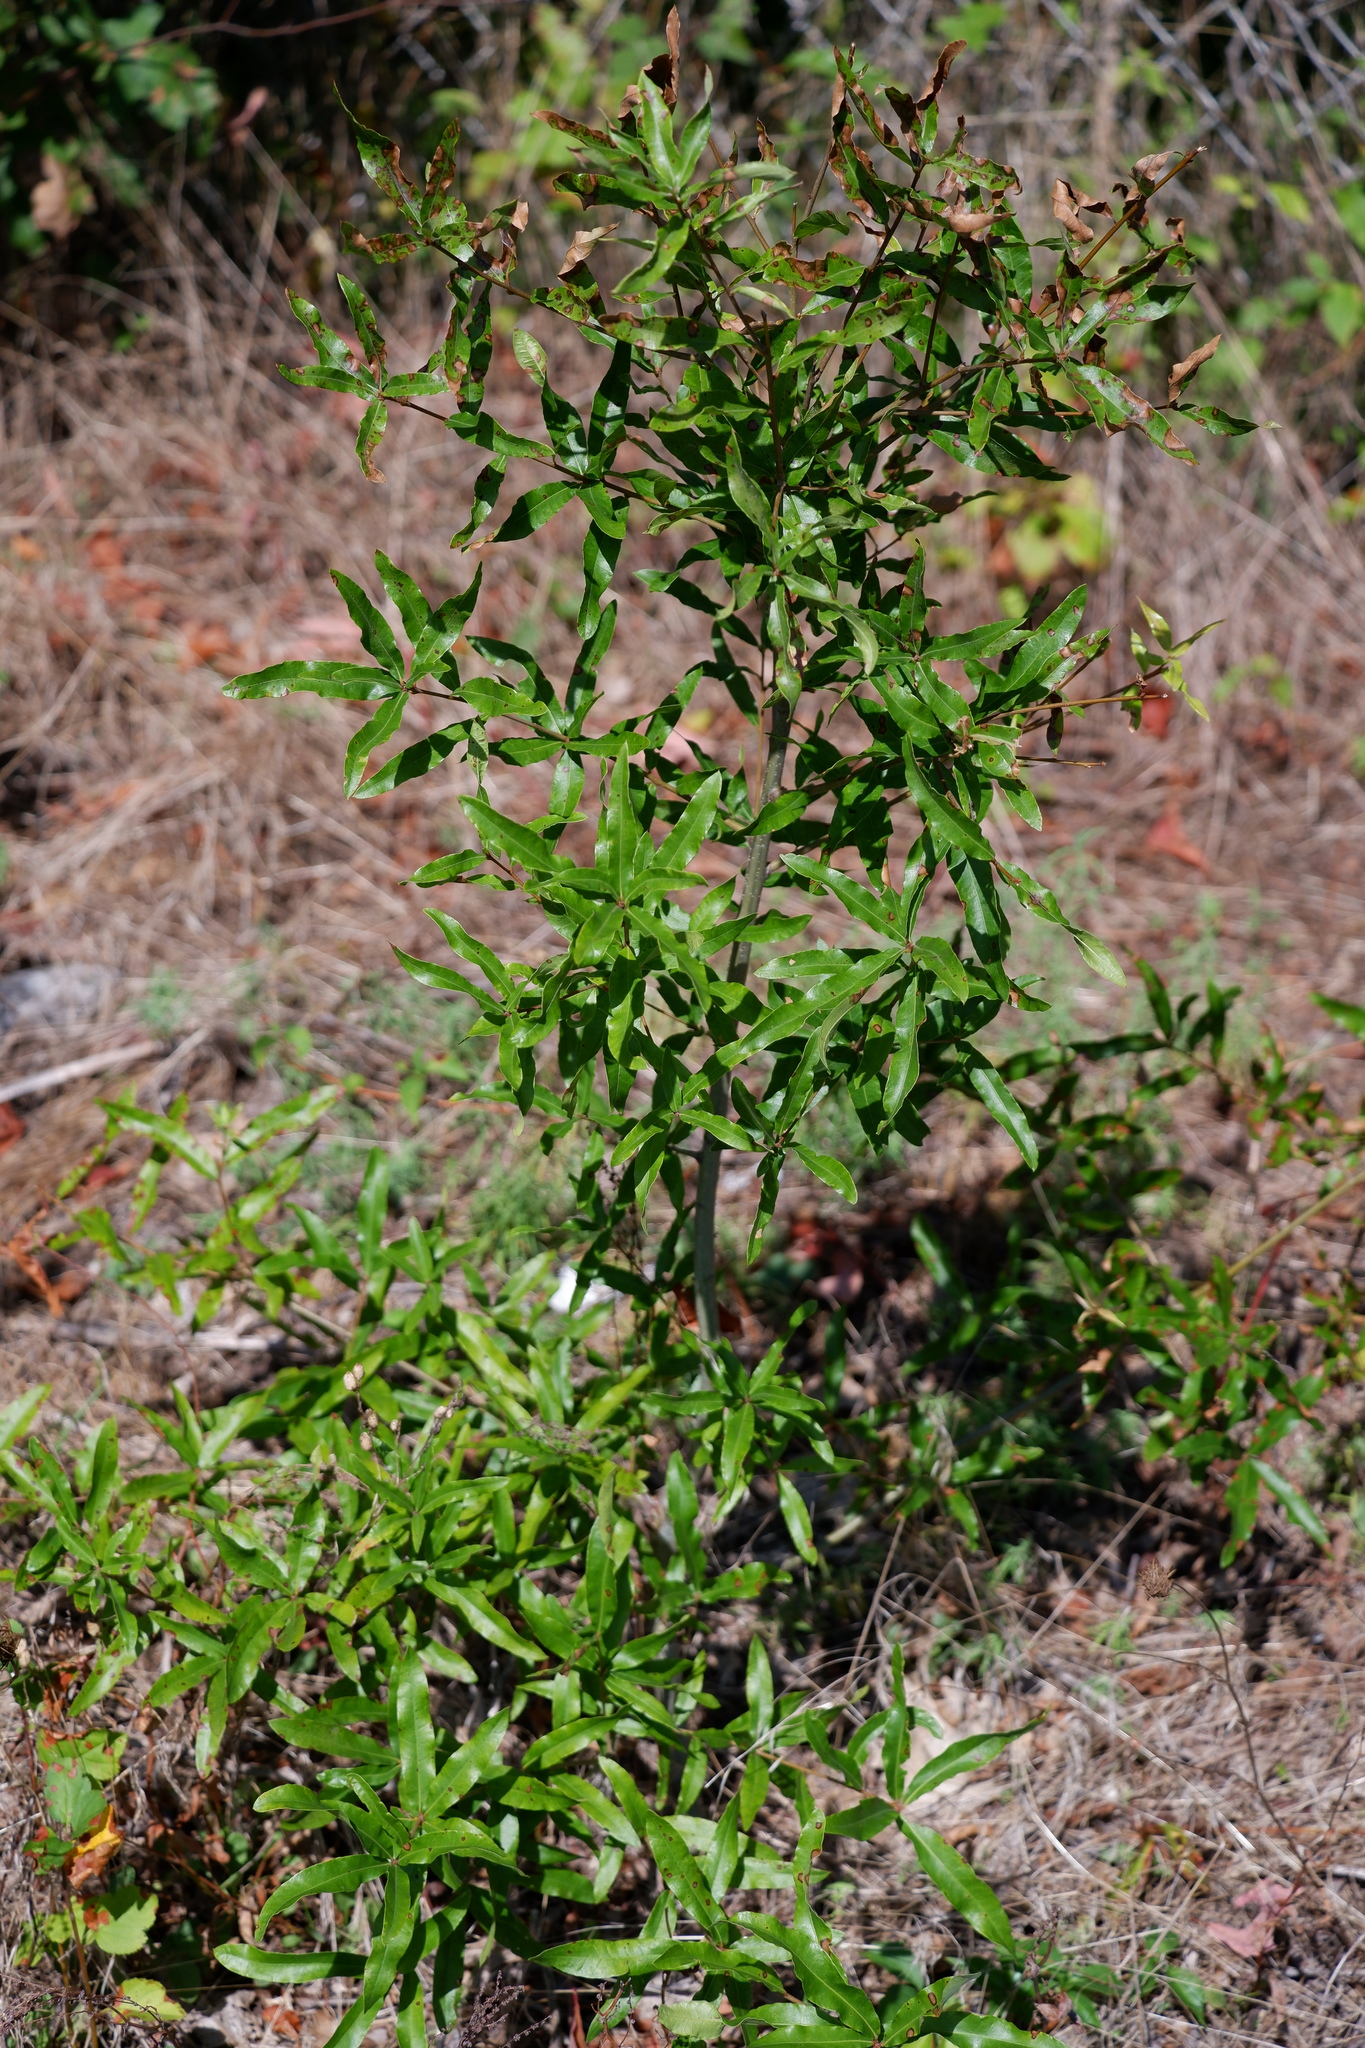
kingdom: Plantae
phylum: Tracheophyta
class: Magnoliopsida
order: Fagales
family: Fagaceae
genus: Quercus
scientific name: Quercus phellos
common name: Willow oak
